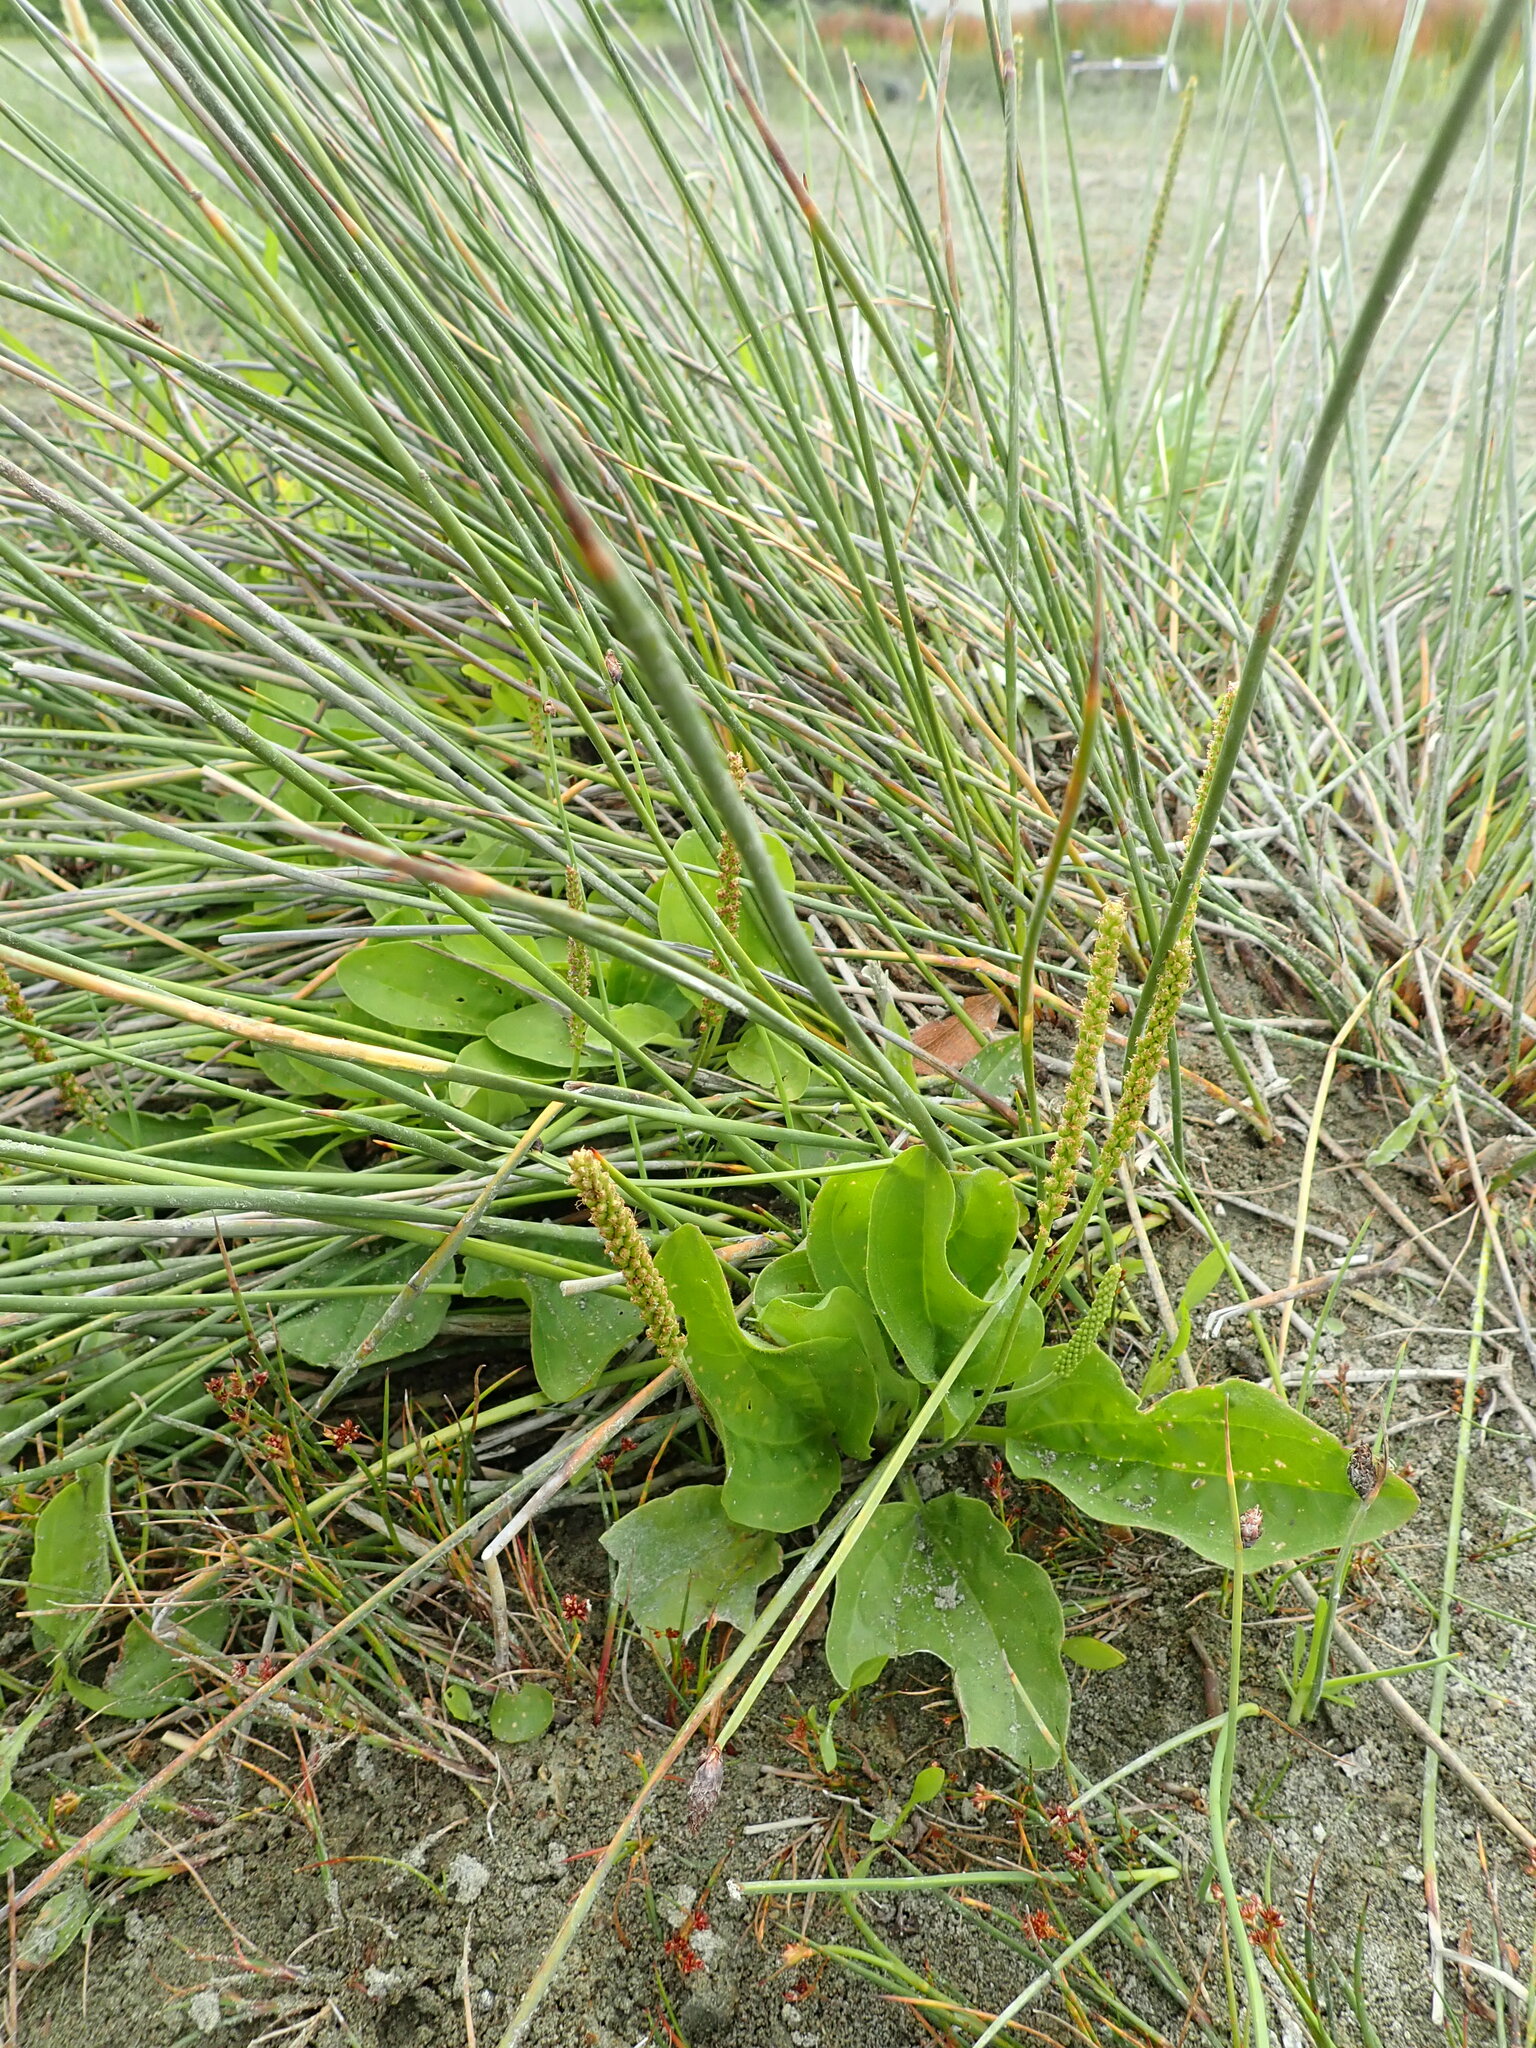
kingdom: Plantae
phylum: Tracheophyta
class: Magnoliopsida
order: Lamiales
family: Plantaginaceae
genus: Plantago
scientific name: Plantago major
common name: Common plantain
